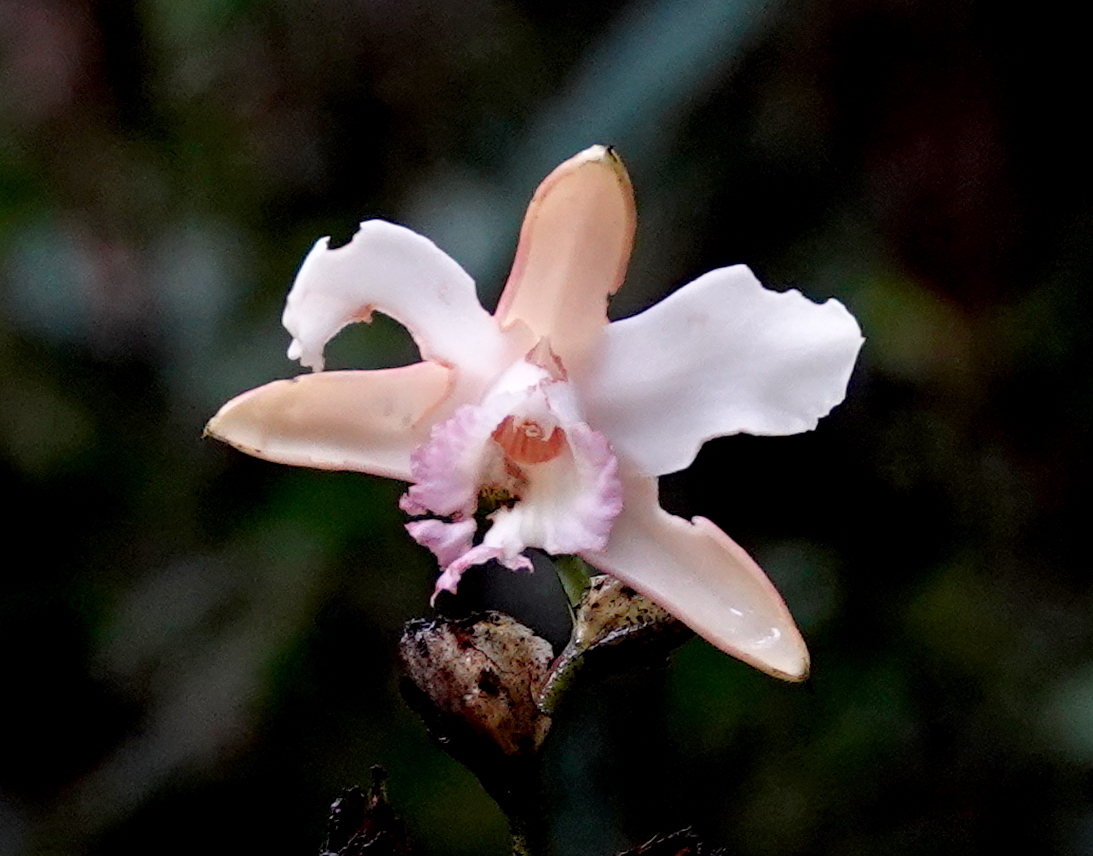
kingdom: Plantae
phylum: Tracheophyta
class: Liliopsida
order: Asparagales
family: Orchidaceae
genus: Sobralia
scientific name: Sobralia gloriosa
